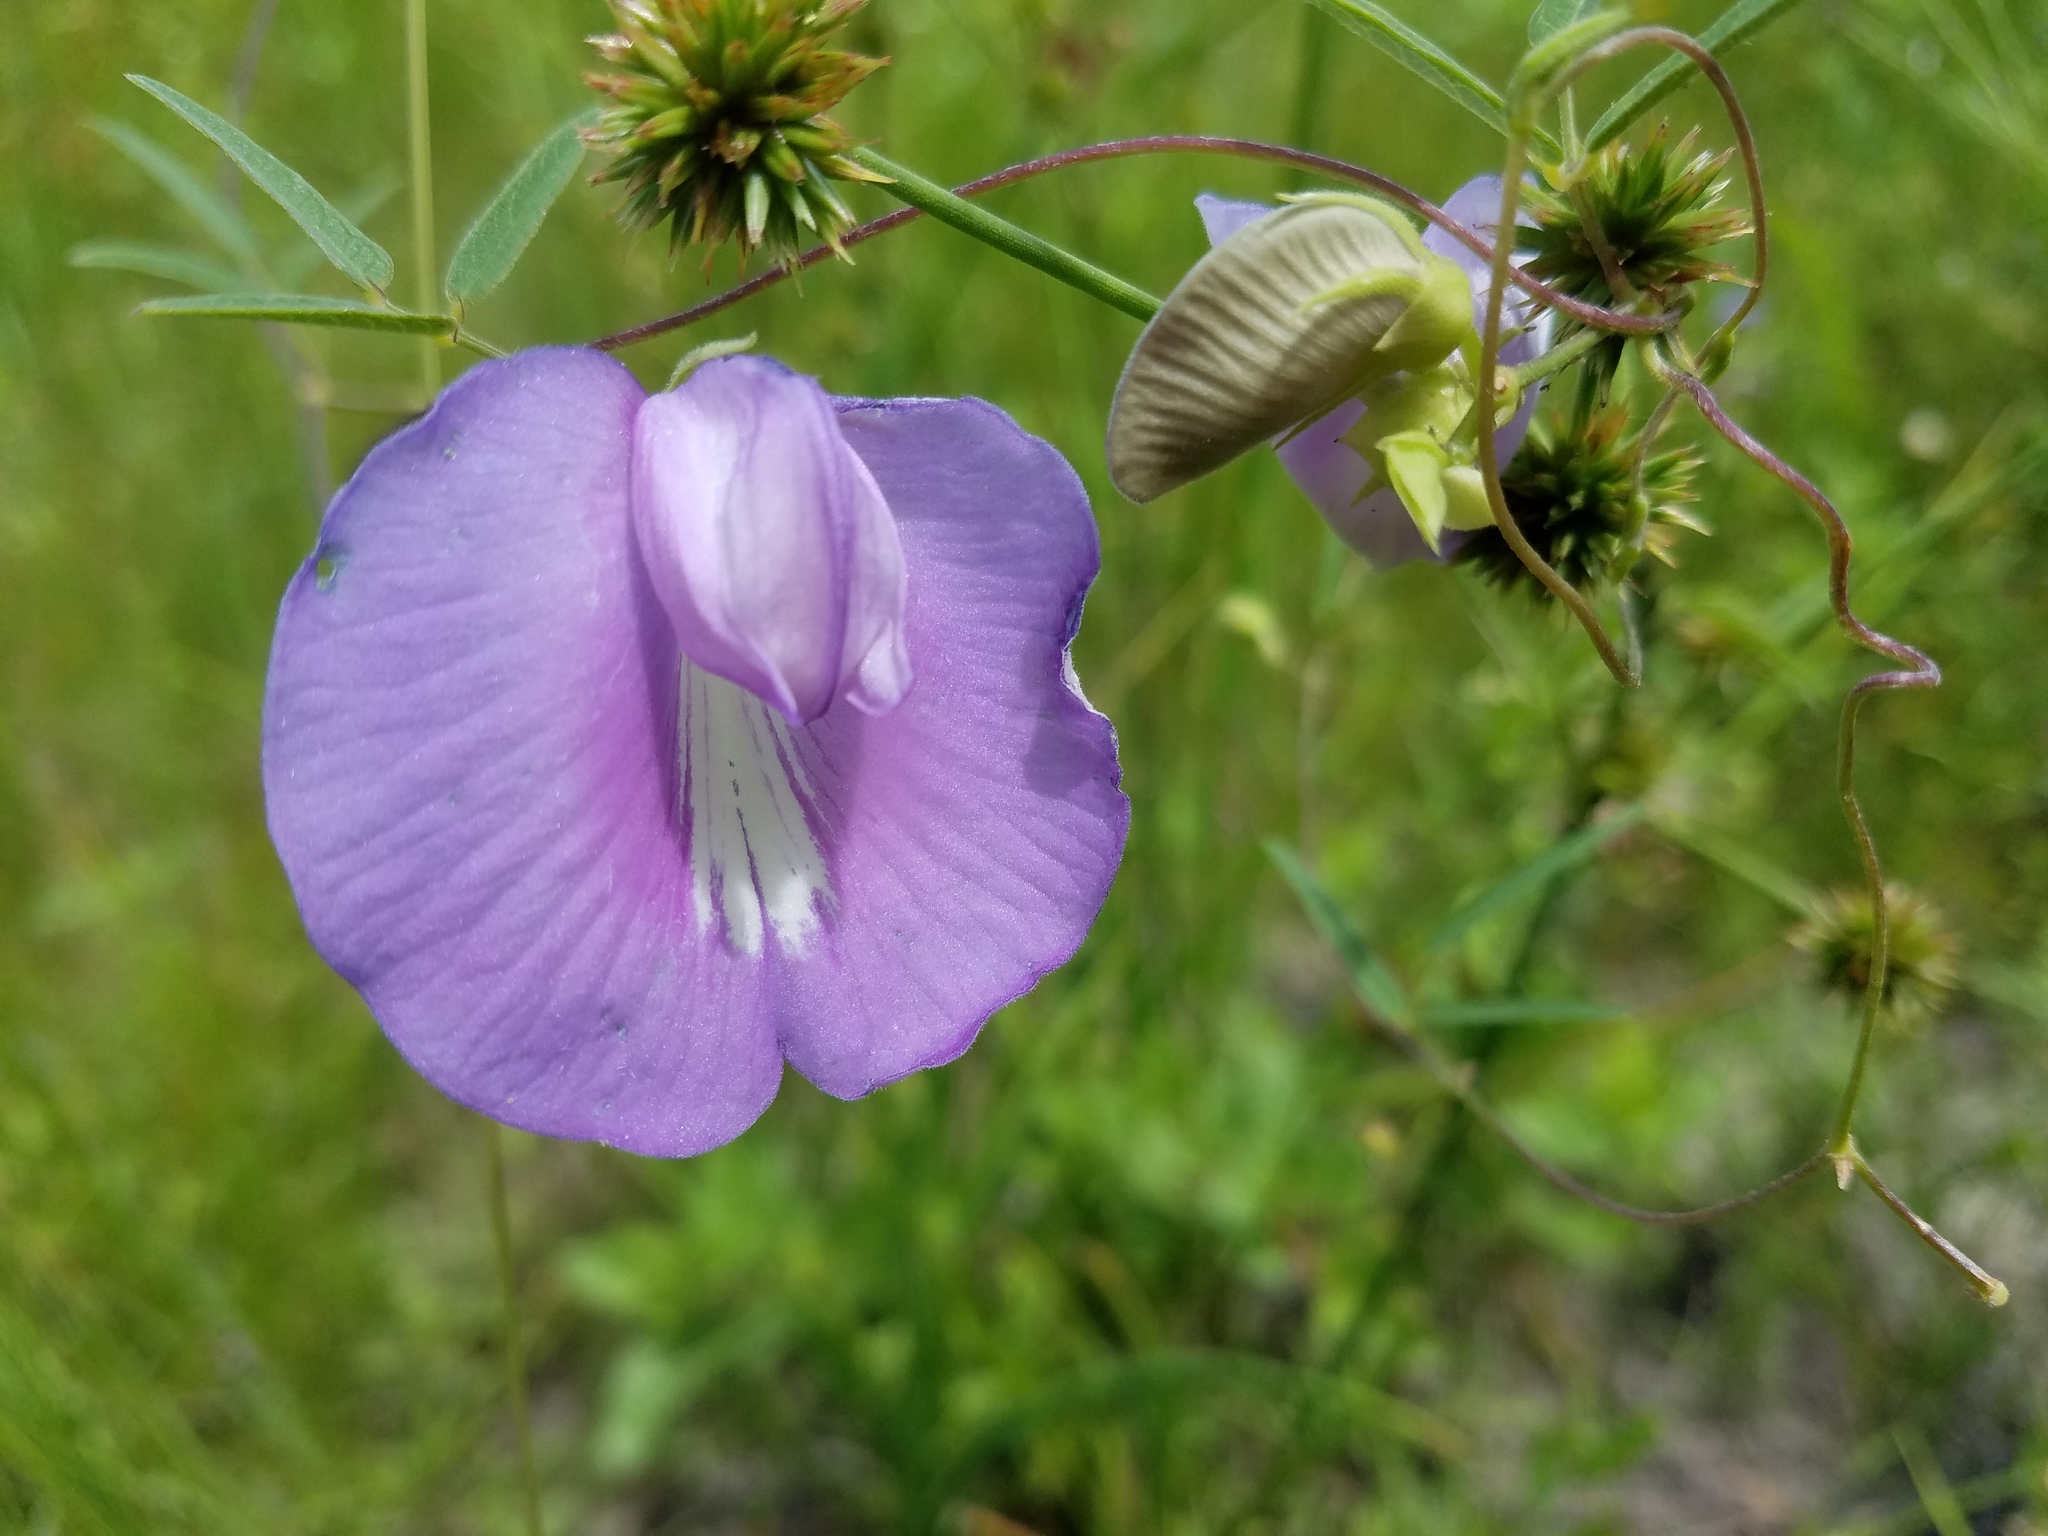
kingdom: Plantae
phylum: Tracheophyta
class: Magnoliopsida
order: Fabales
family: Fabaceae
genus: Centrosema
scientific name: Centrosema virginianum
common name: Butterfly-pea
